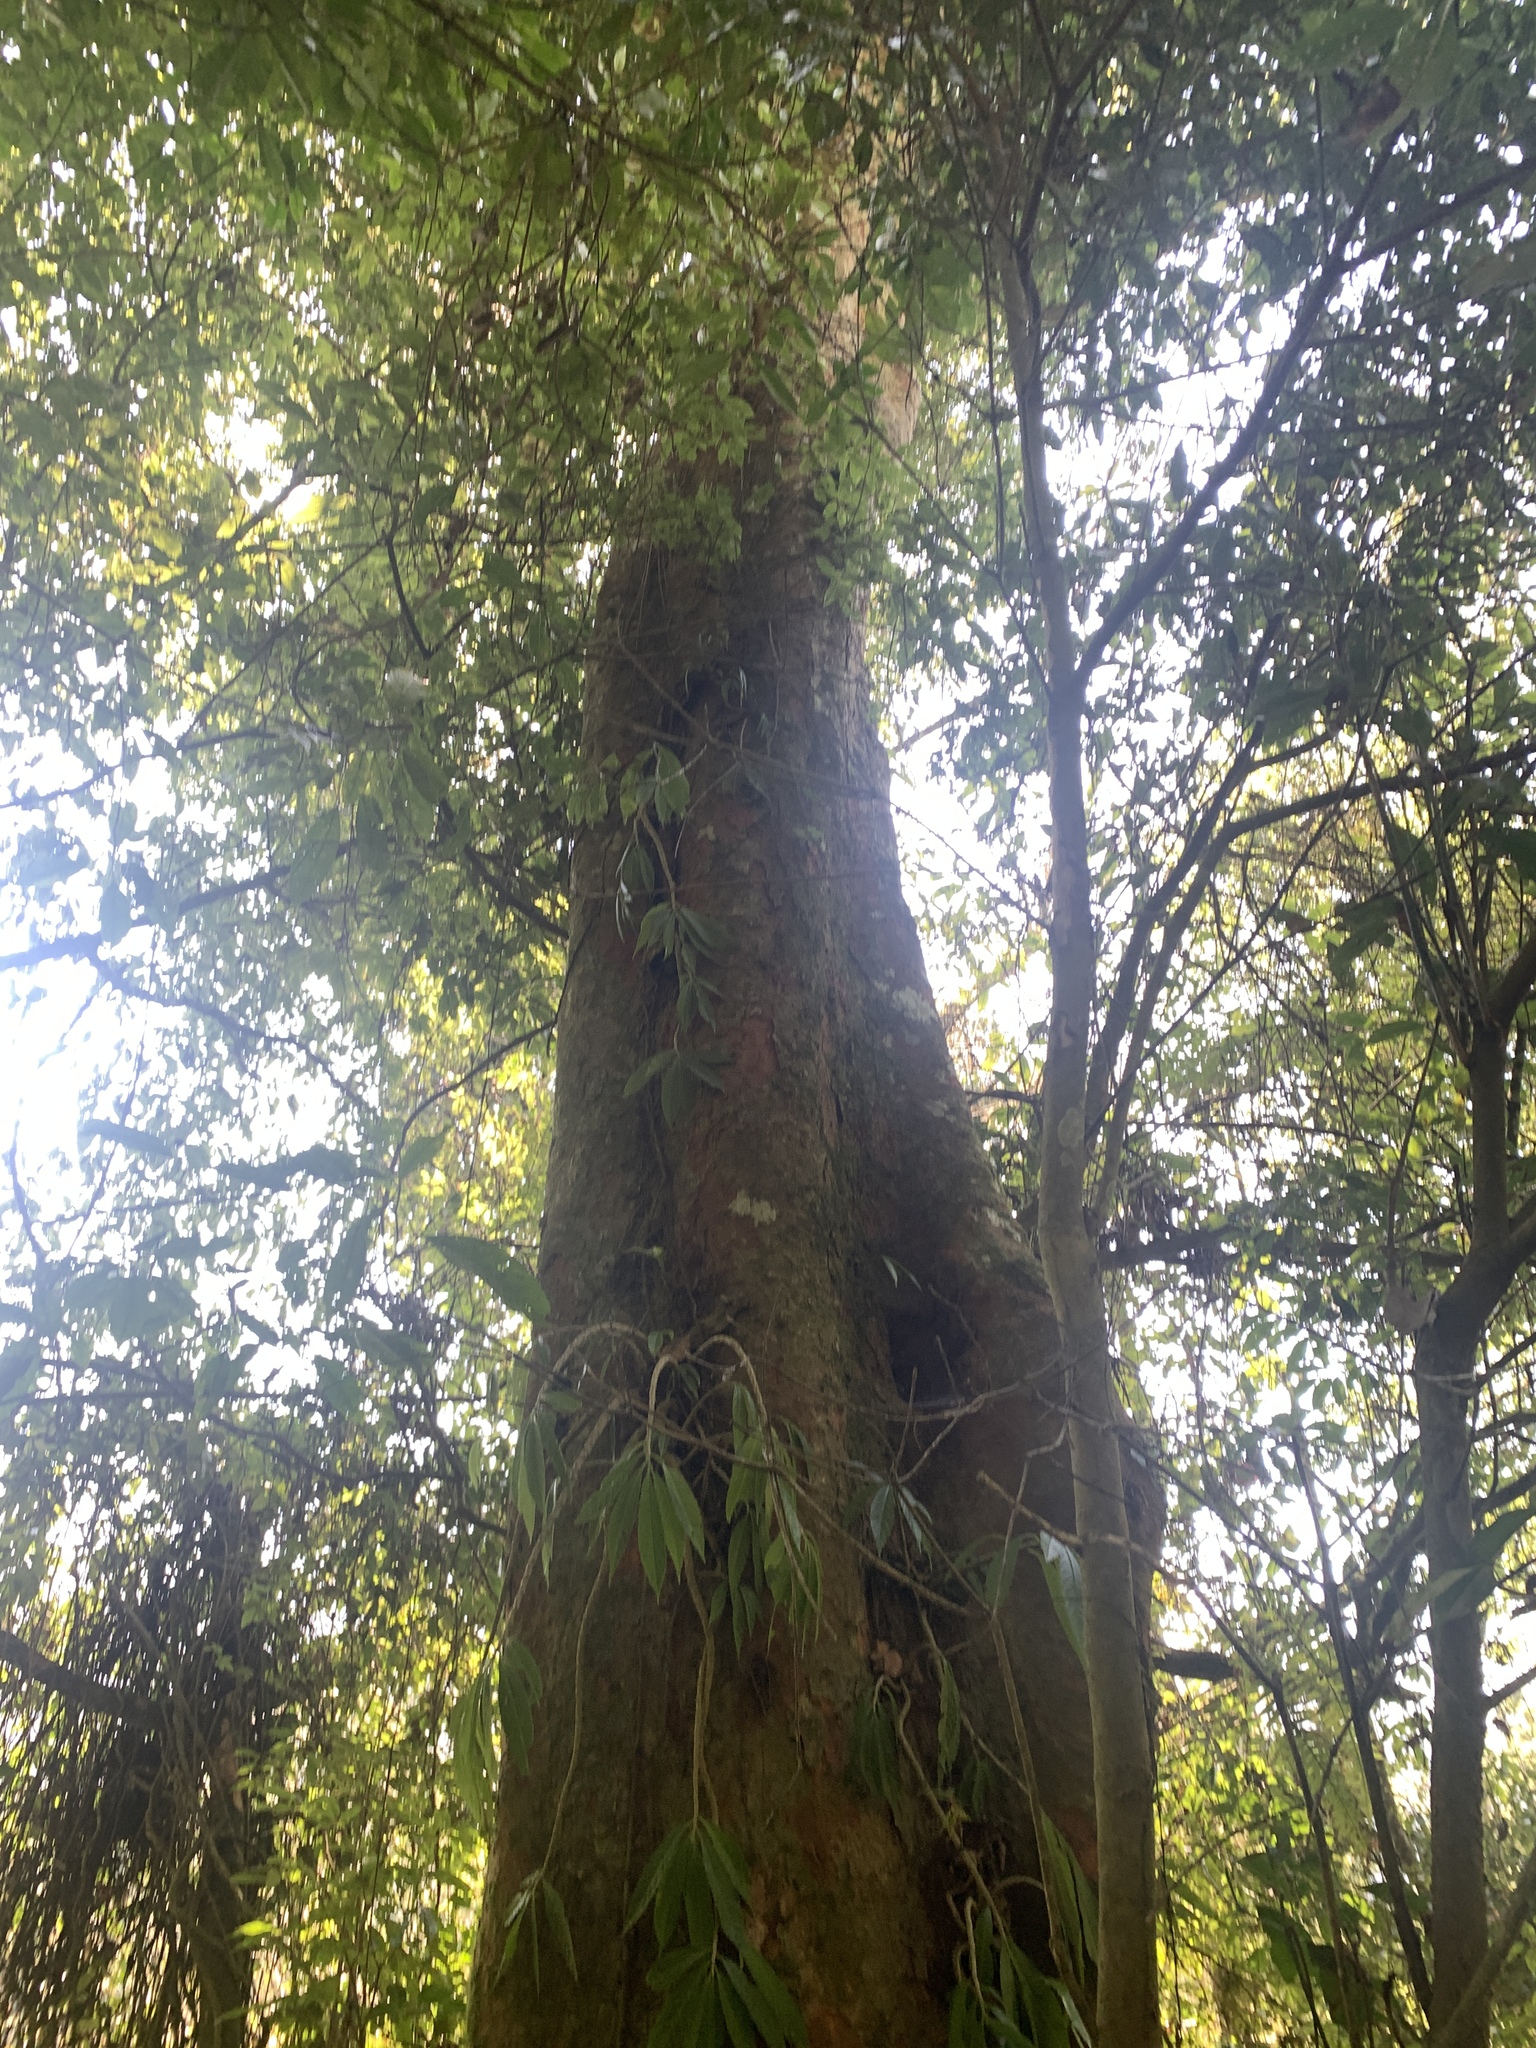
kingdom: Plantae
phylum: Tracheophyta
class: Magnoliopsida
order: Laurales
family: Lauraceae
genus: Beilschmiedia
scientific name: Beilschmiedia erythrophloia
